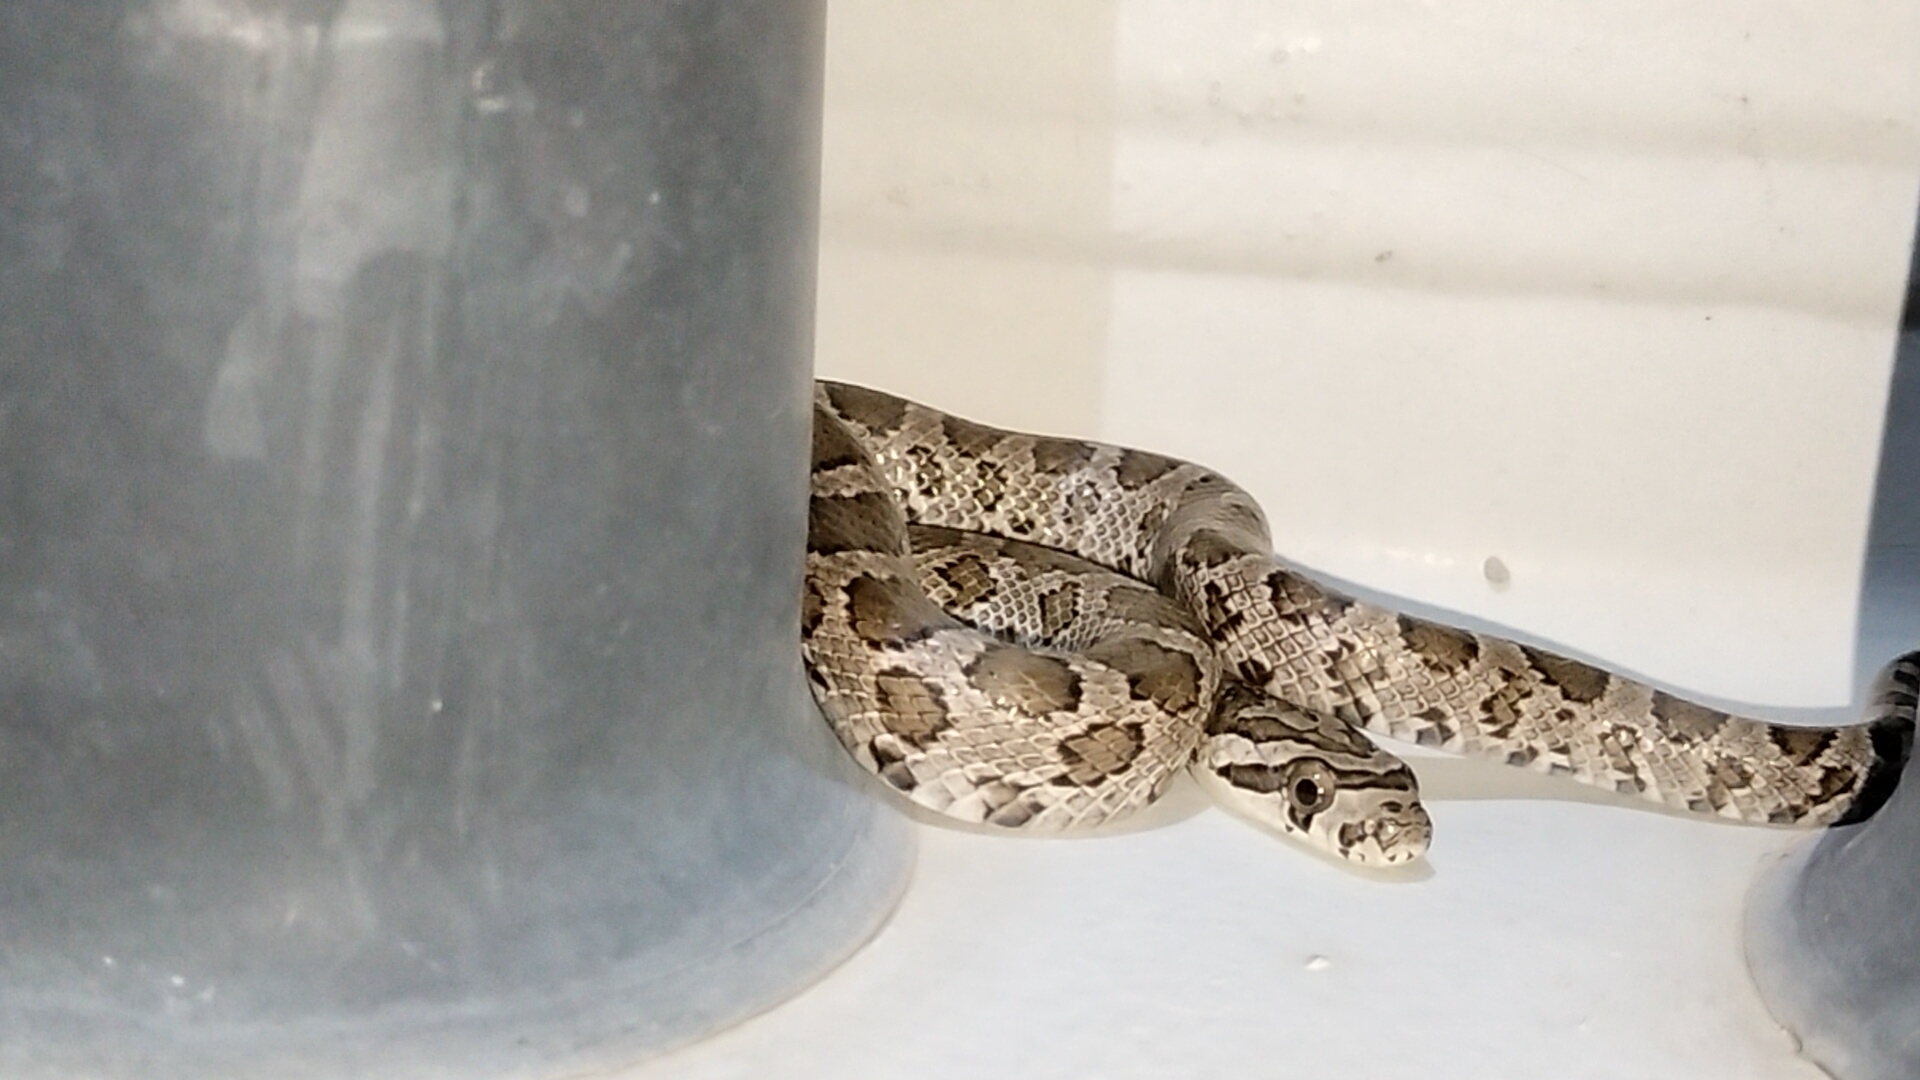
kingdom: Animalia
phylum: Chordata
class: Squamata
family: Colubridae
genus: Pantherophis
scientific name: Pantherophis emoryi
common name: Great plains rat snake
